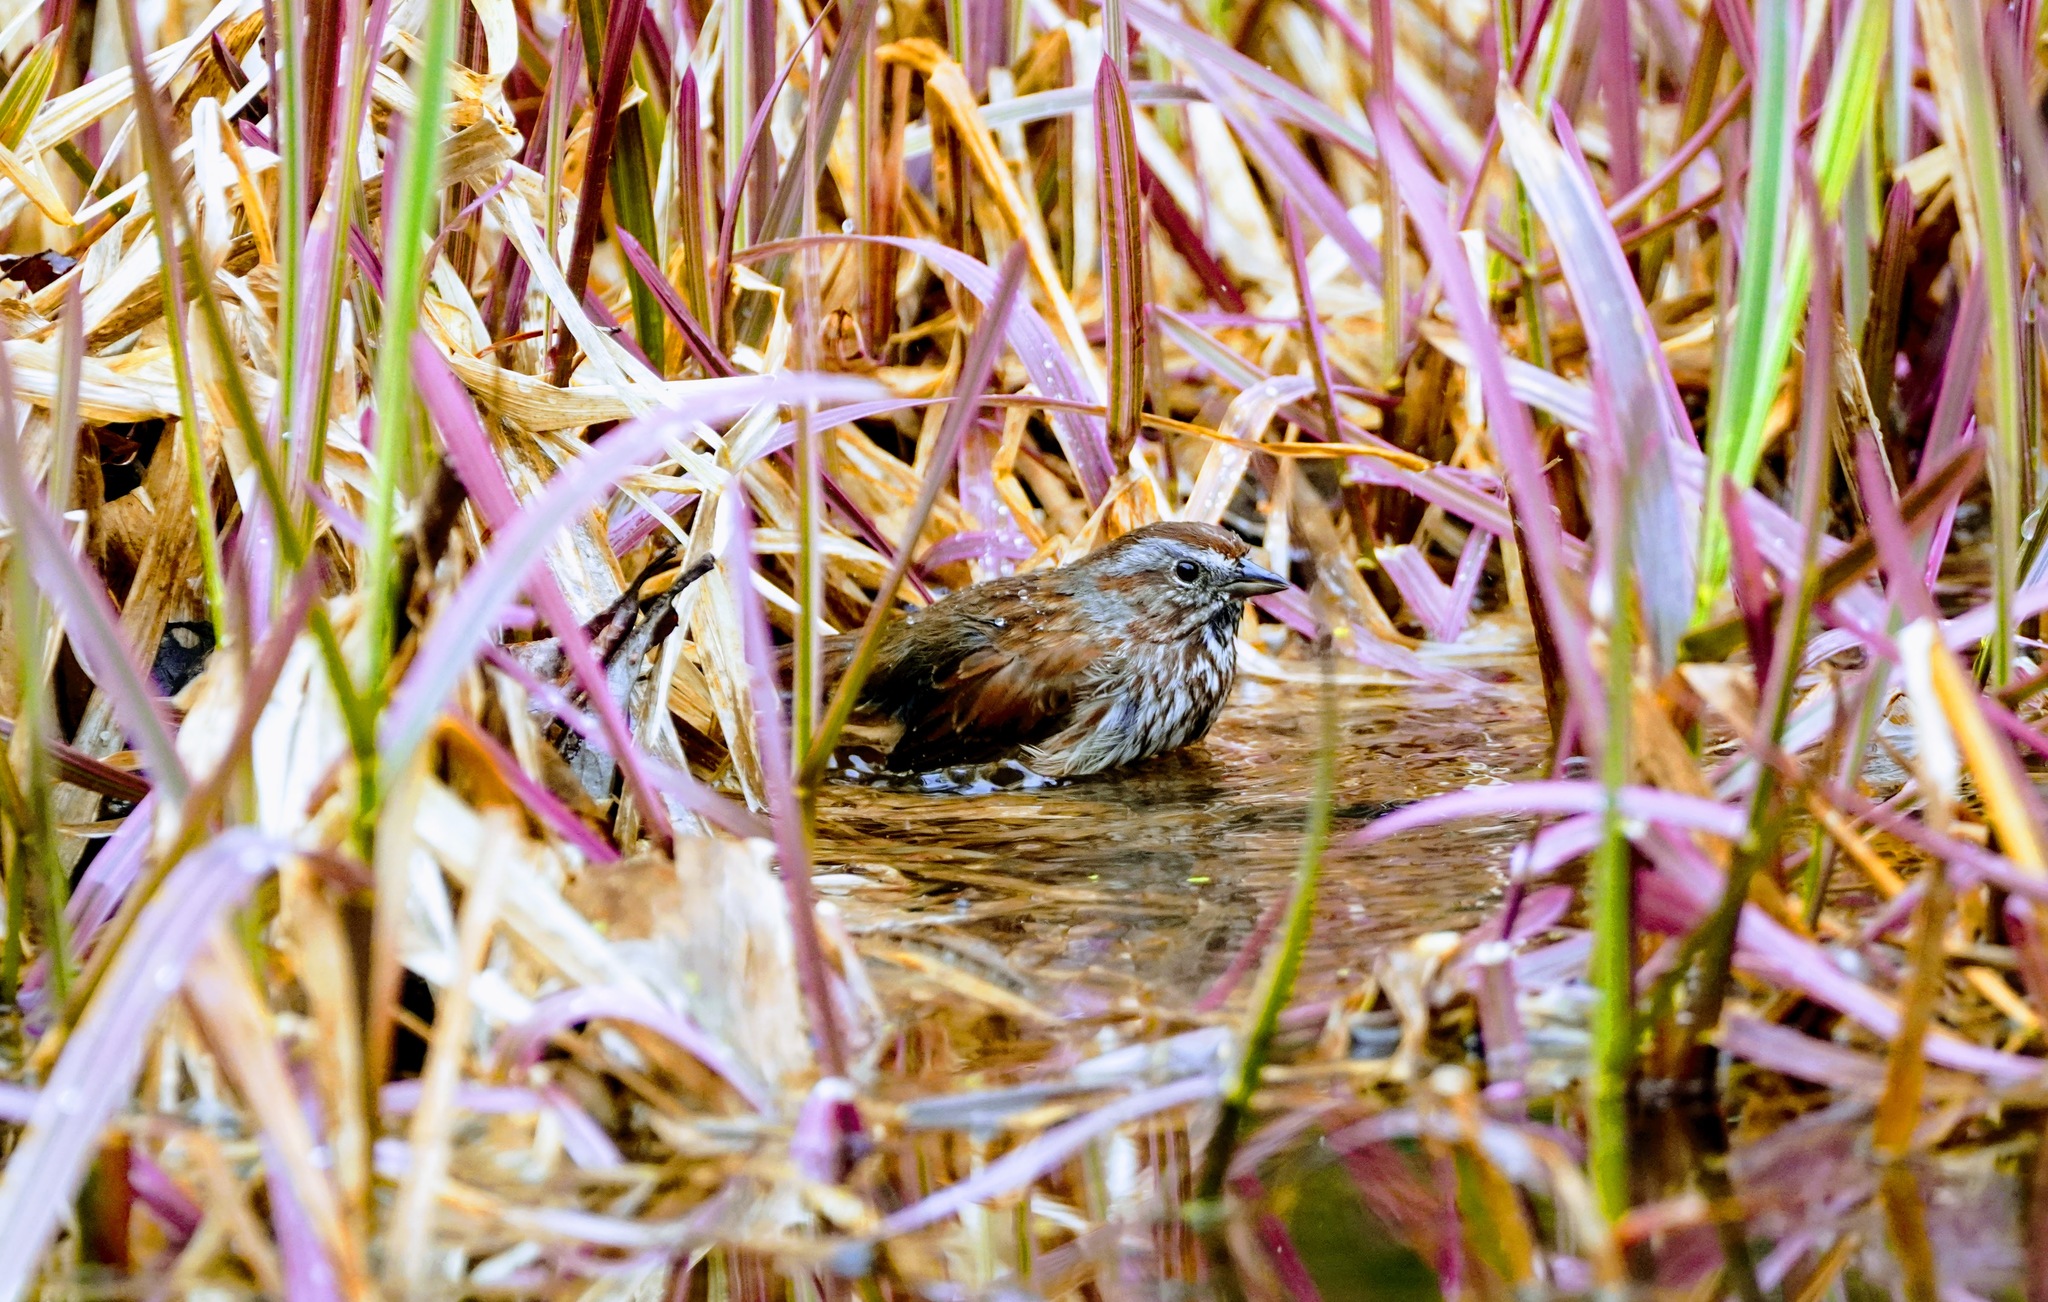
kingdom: Animalia
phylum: Chordata
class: Aves
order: Passeriformes
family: Passerellidae
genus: Melospiza
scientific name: Melospiza melodia
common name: Song sparrow
